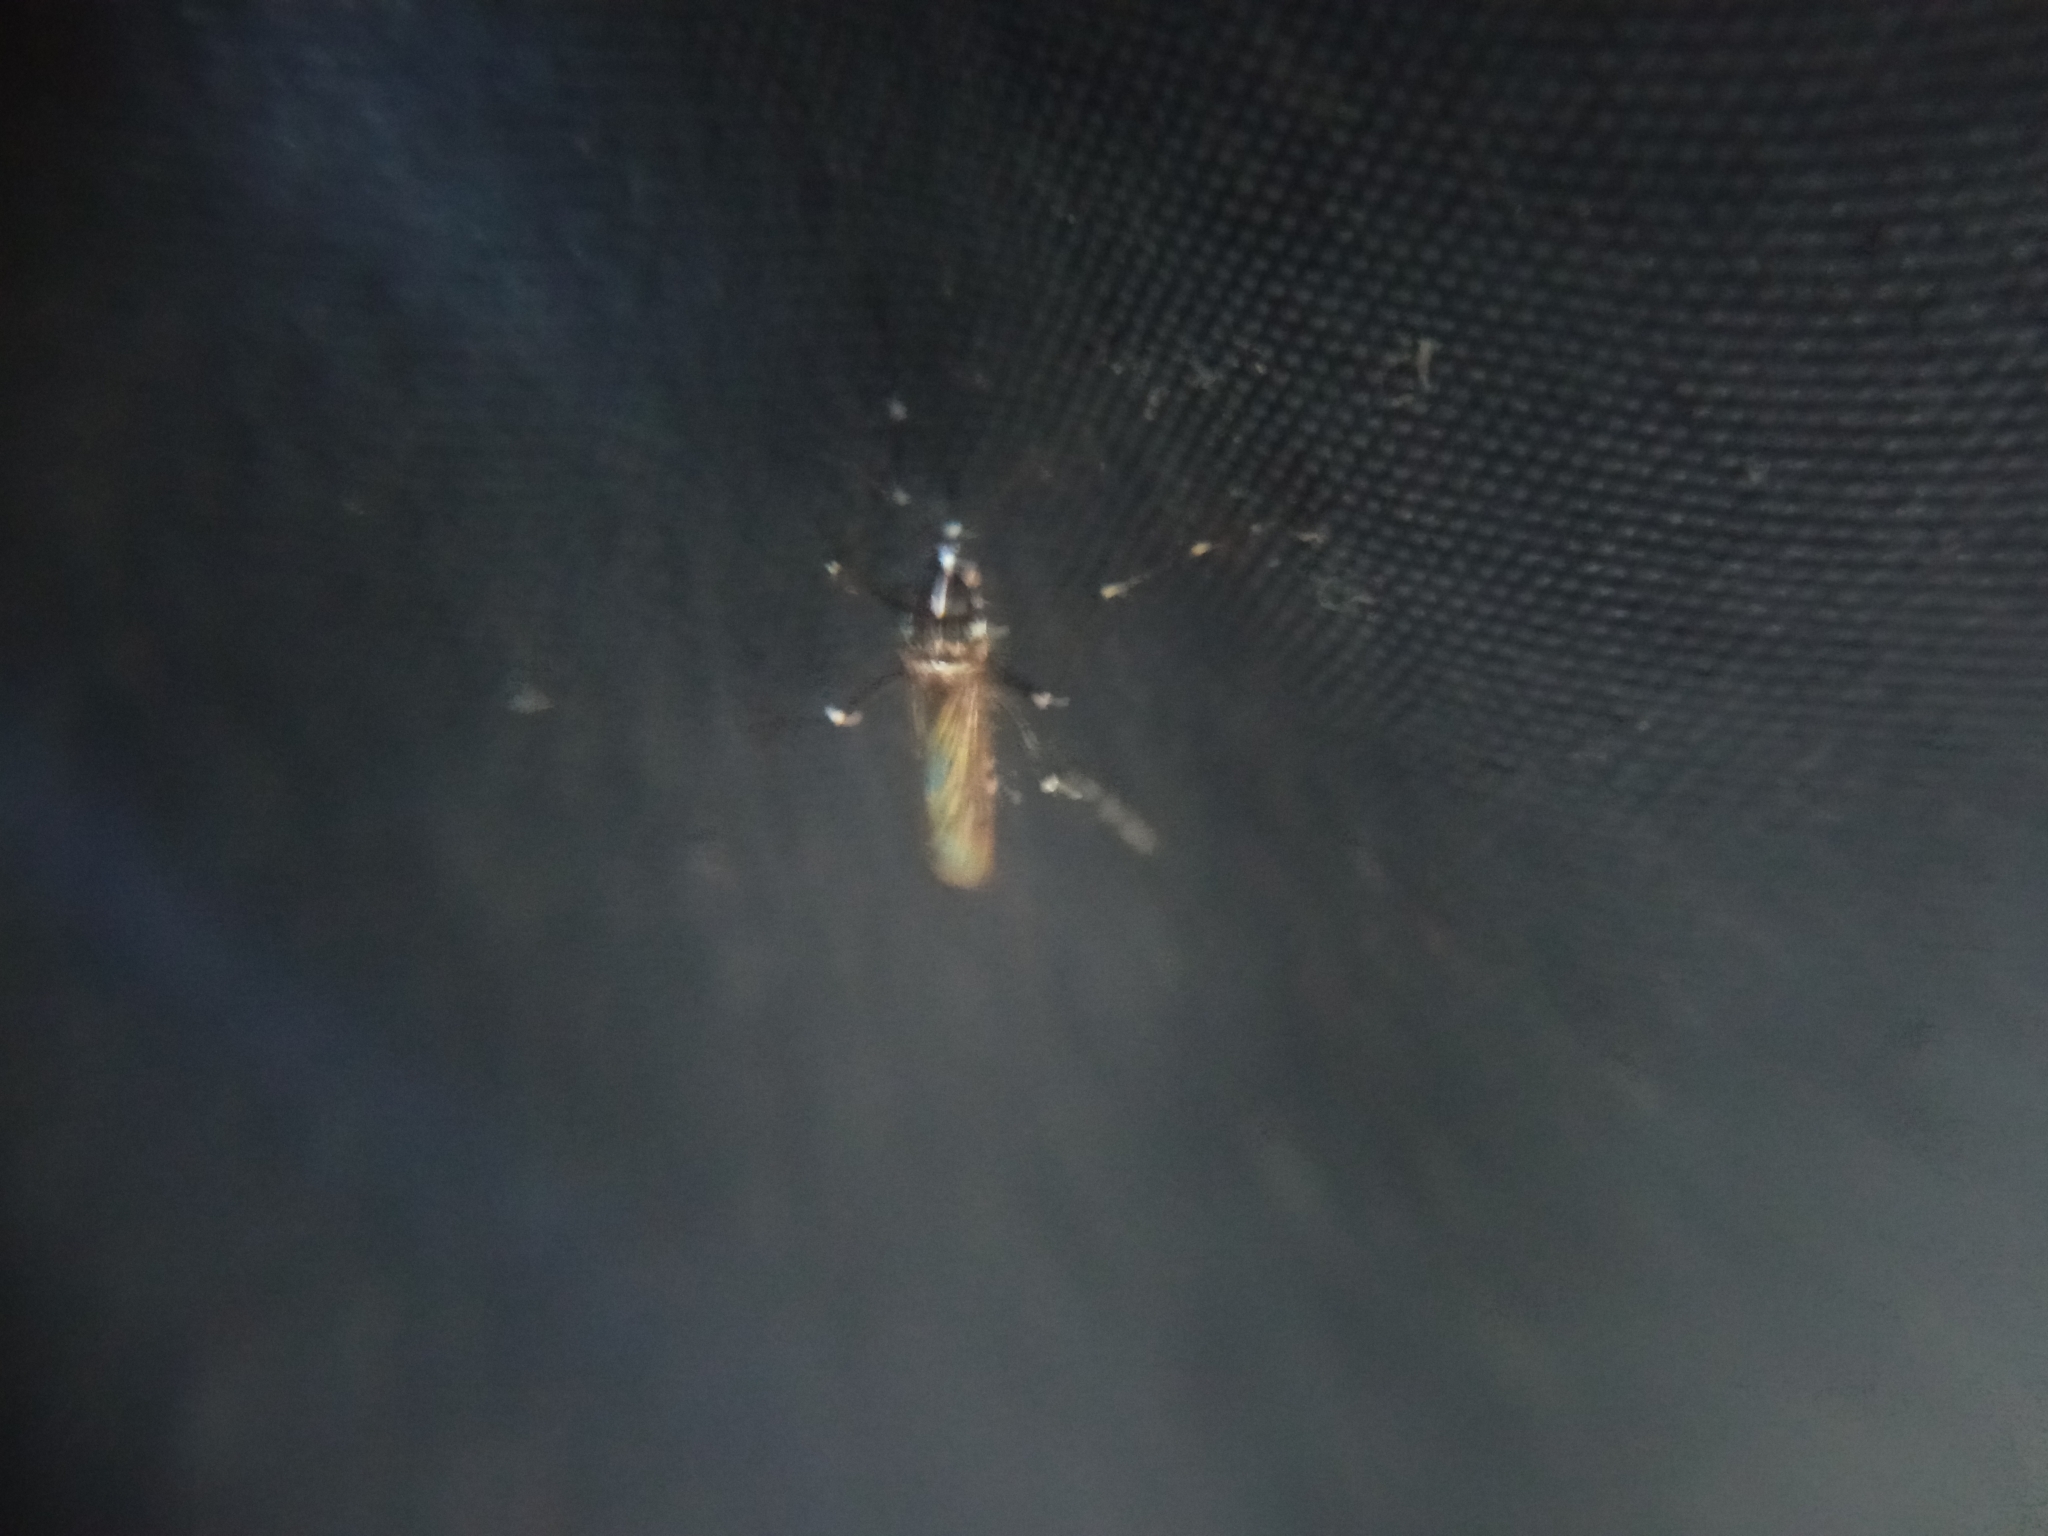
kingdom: Animalia
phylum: Arthropoda
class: Insecta
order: Diptera
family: Culicidae
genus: Aedes
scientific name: Aedes albopictus
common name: Tiger mosquito
